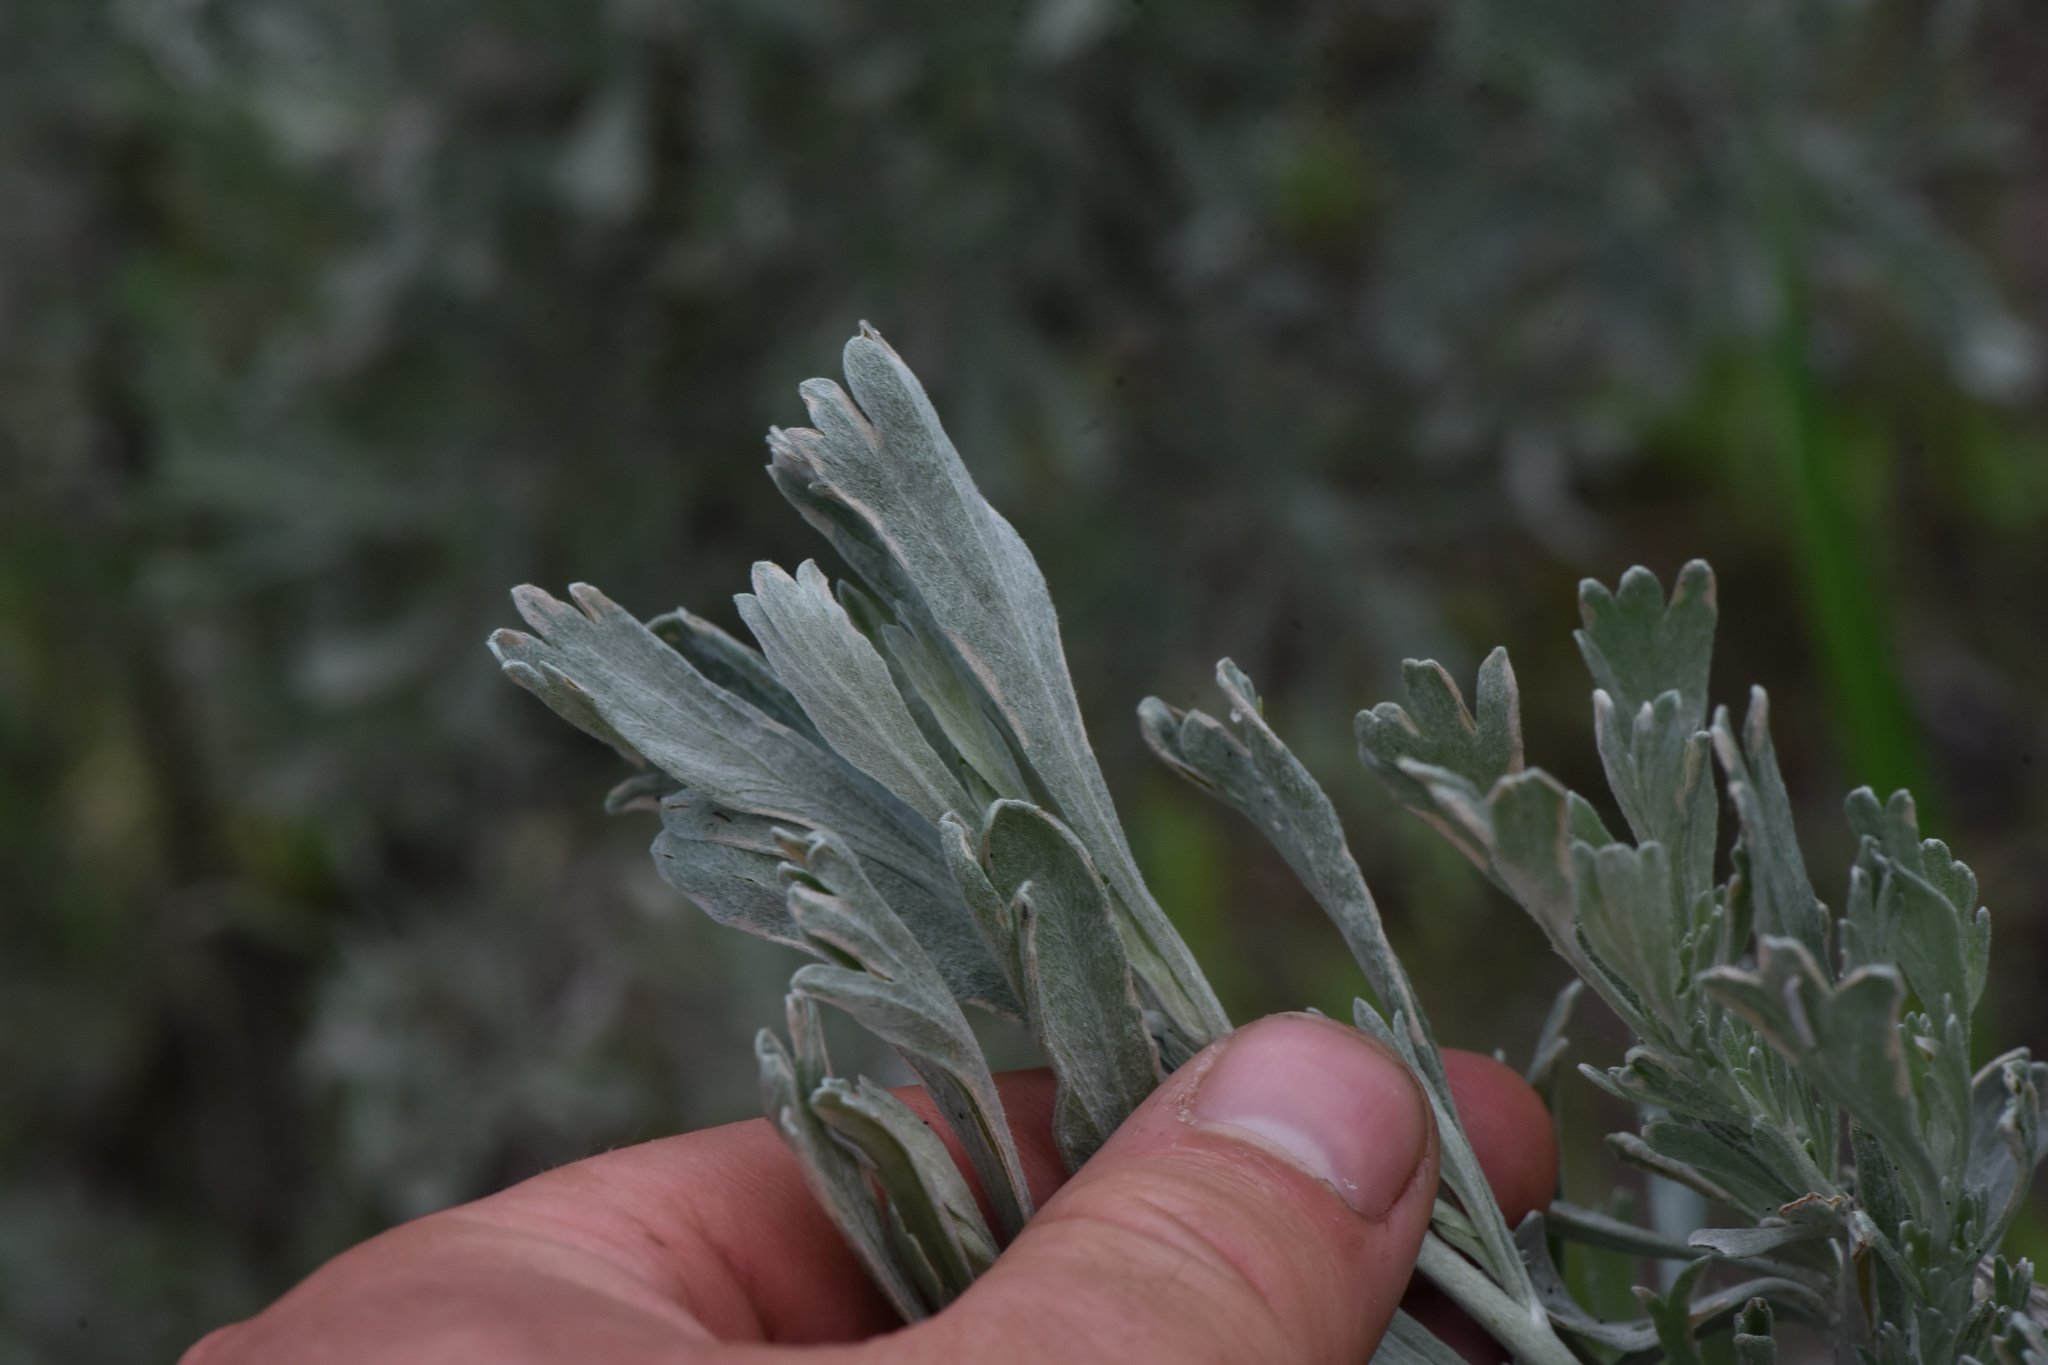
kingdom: Plantae
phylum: Tracheophyta
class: Magnoliopsida
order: Asterales
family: Asteraceae
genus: Artemisia
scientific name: Artemisia tridentata
